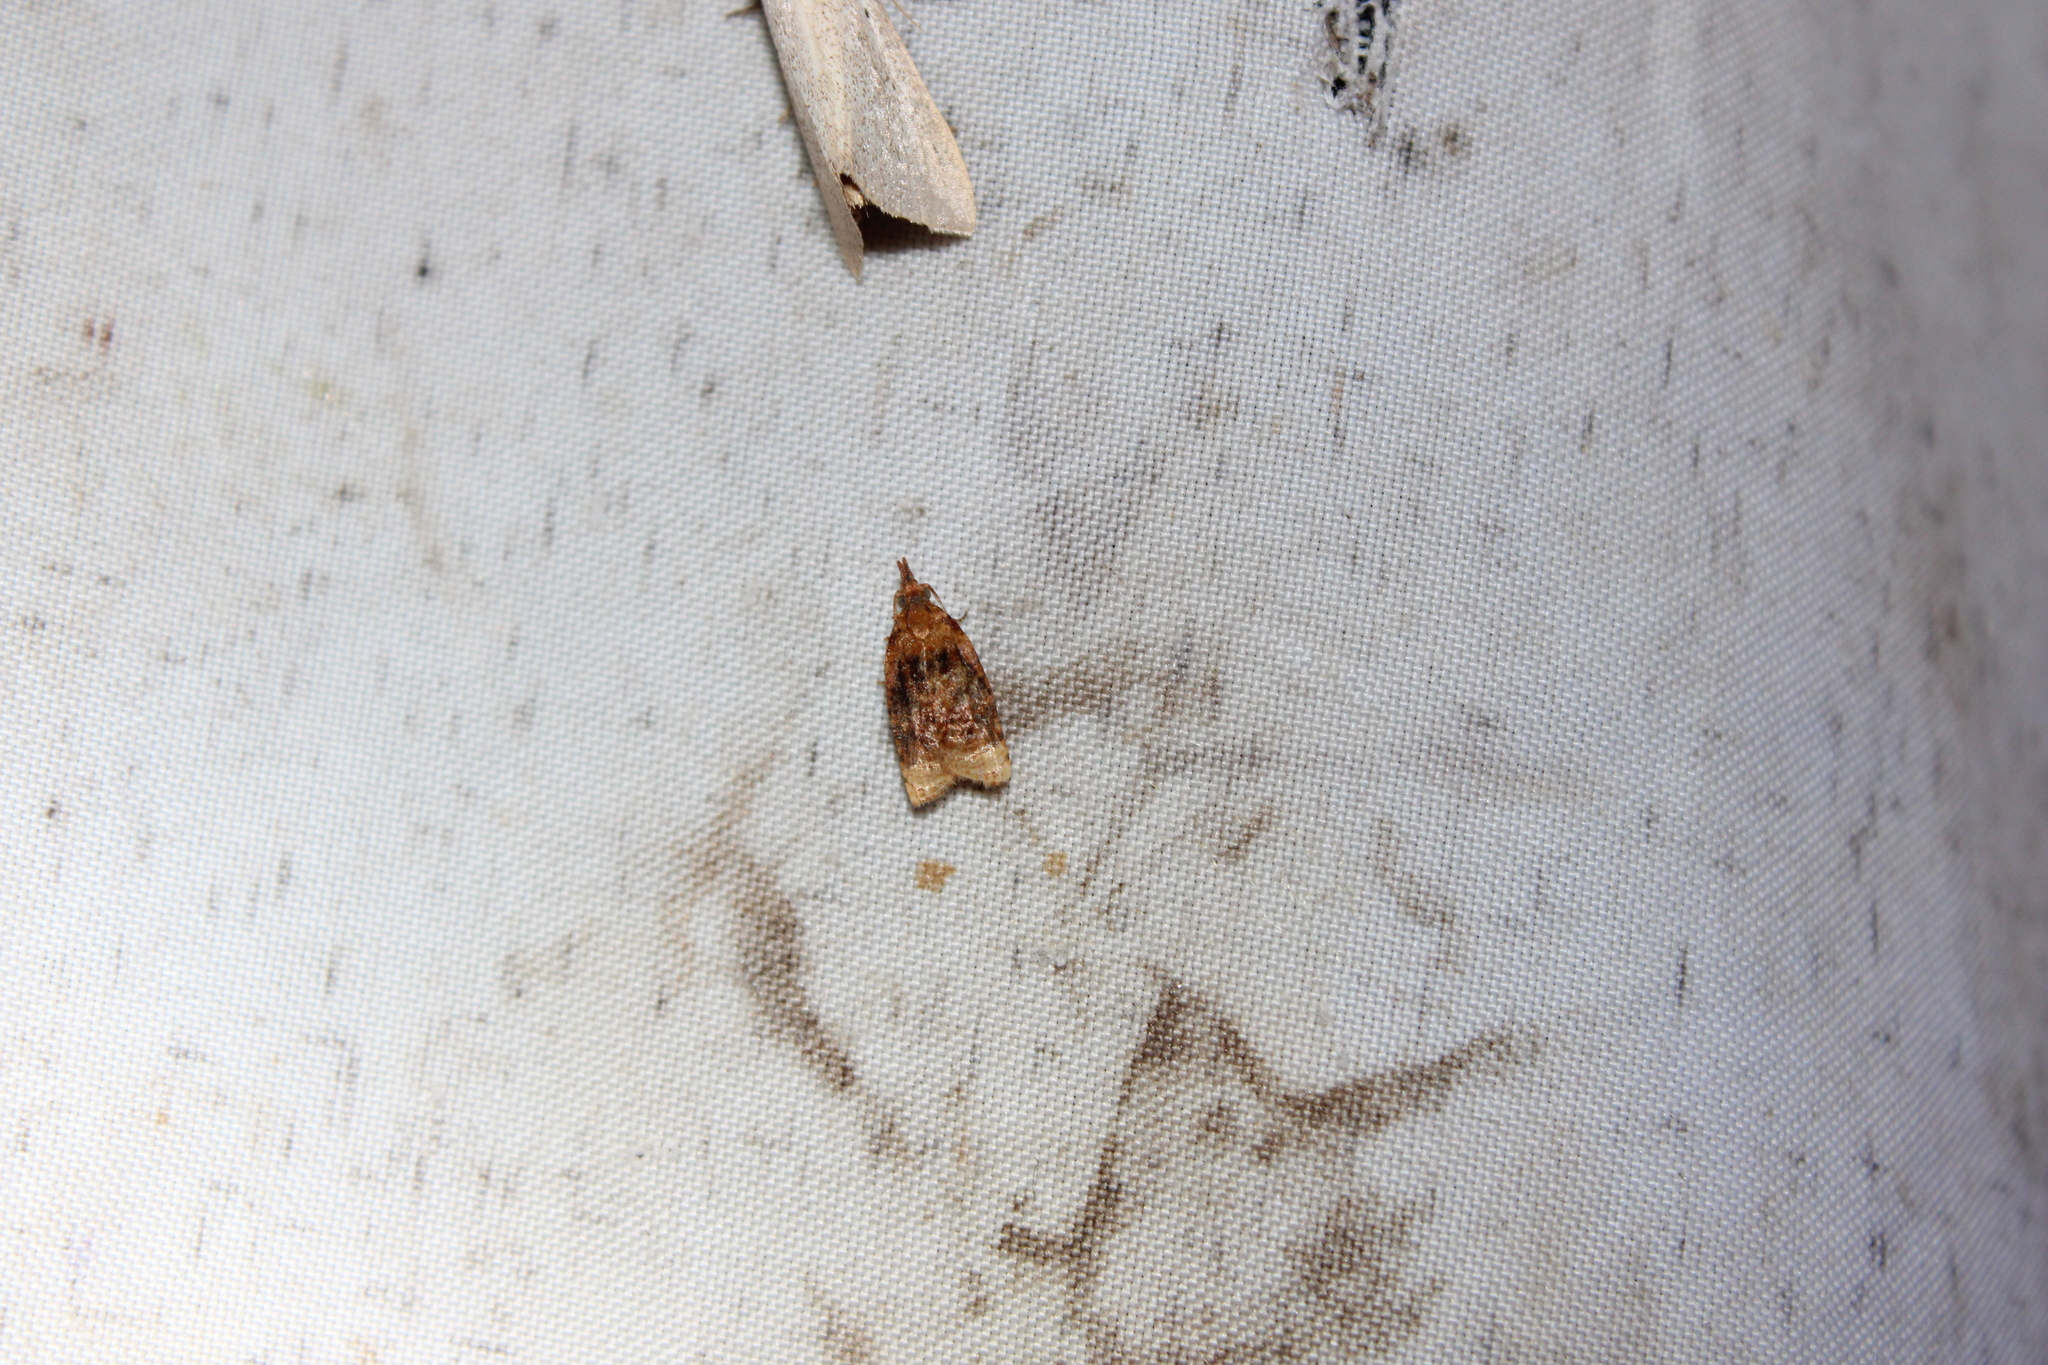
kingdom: Animalia
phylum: Arthropoda
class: Insecta
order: Lepidoptera
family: Tortricidae
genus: Platynota
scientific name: Platynota flavedana
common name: Black-shaded platynota moth
